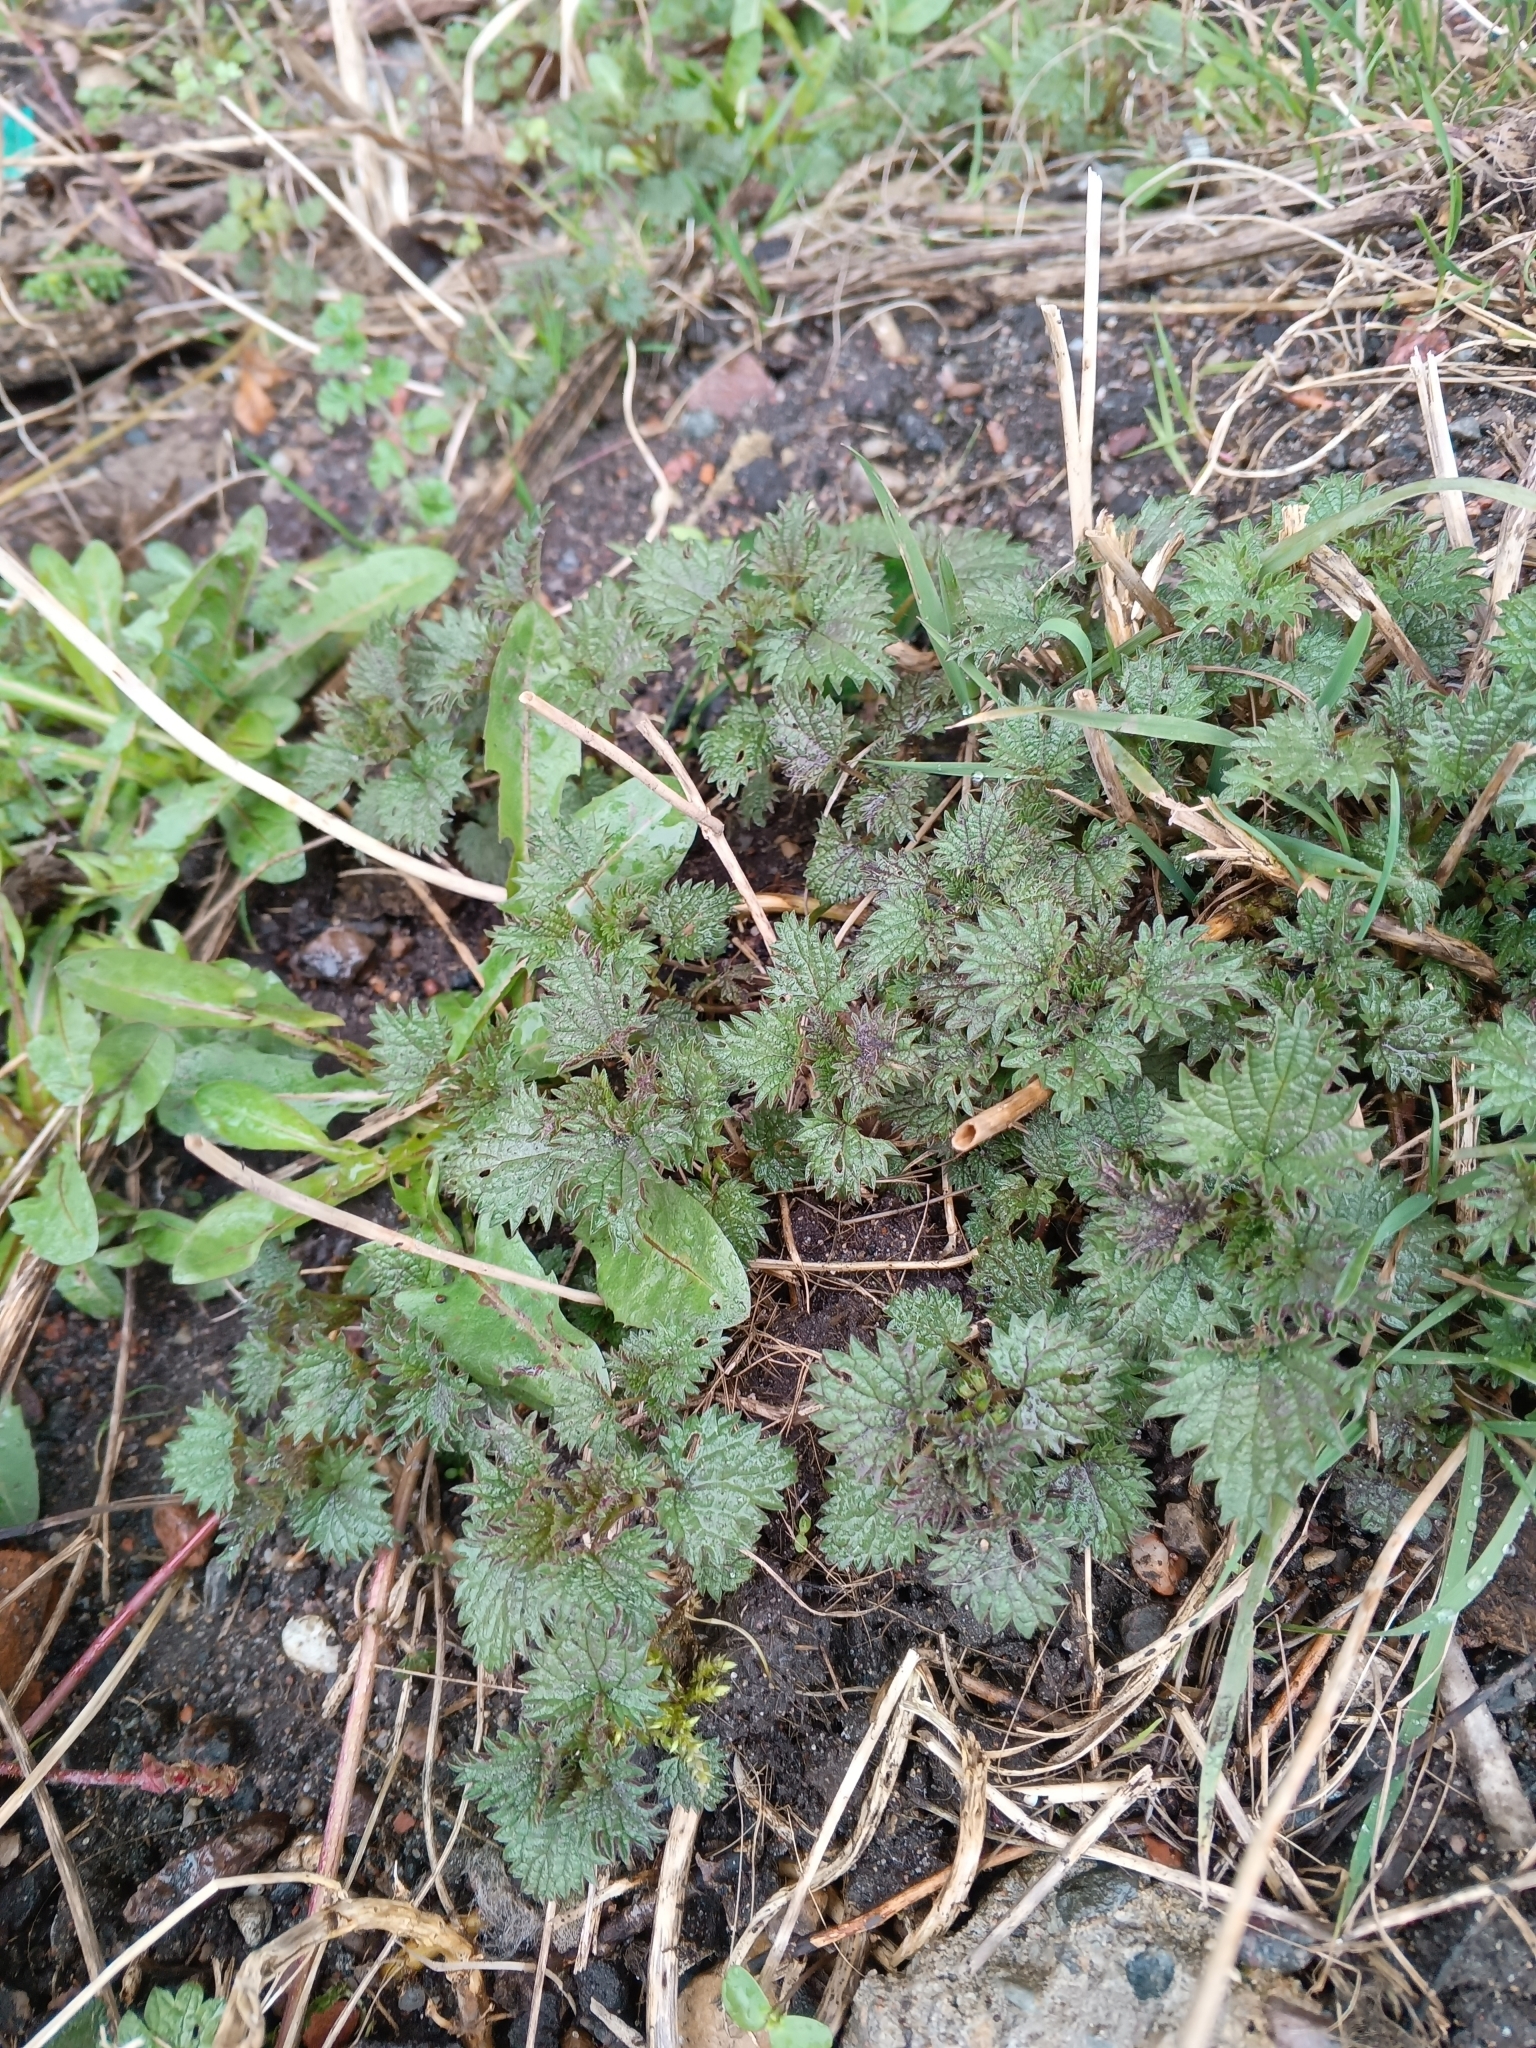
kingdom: Plantae
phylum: Tracheophyta
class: Magnoliopsida
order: Rosales
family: Urticaceae
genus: Urtica
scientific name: Urtica dioica
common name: Common nettle
